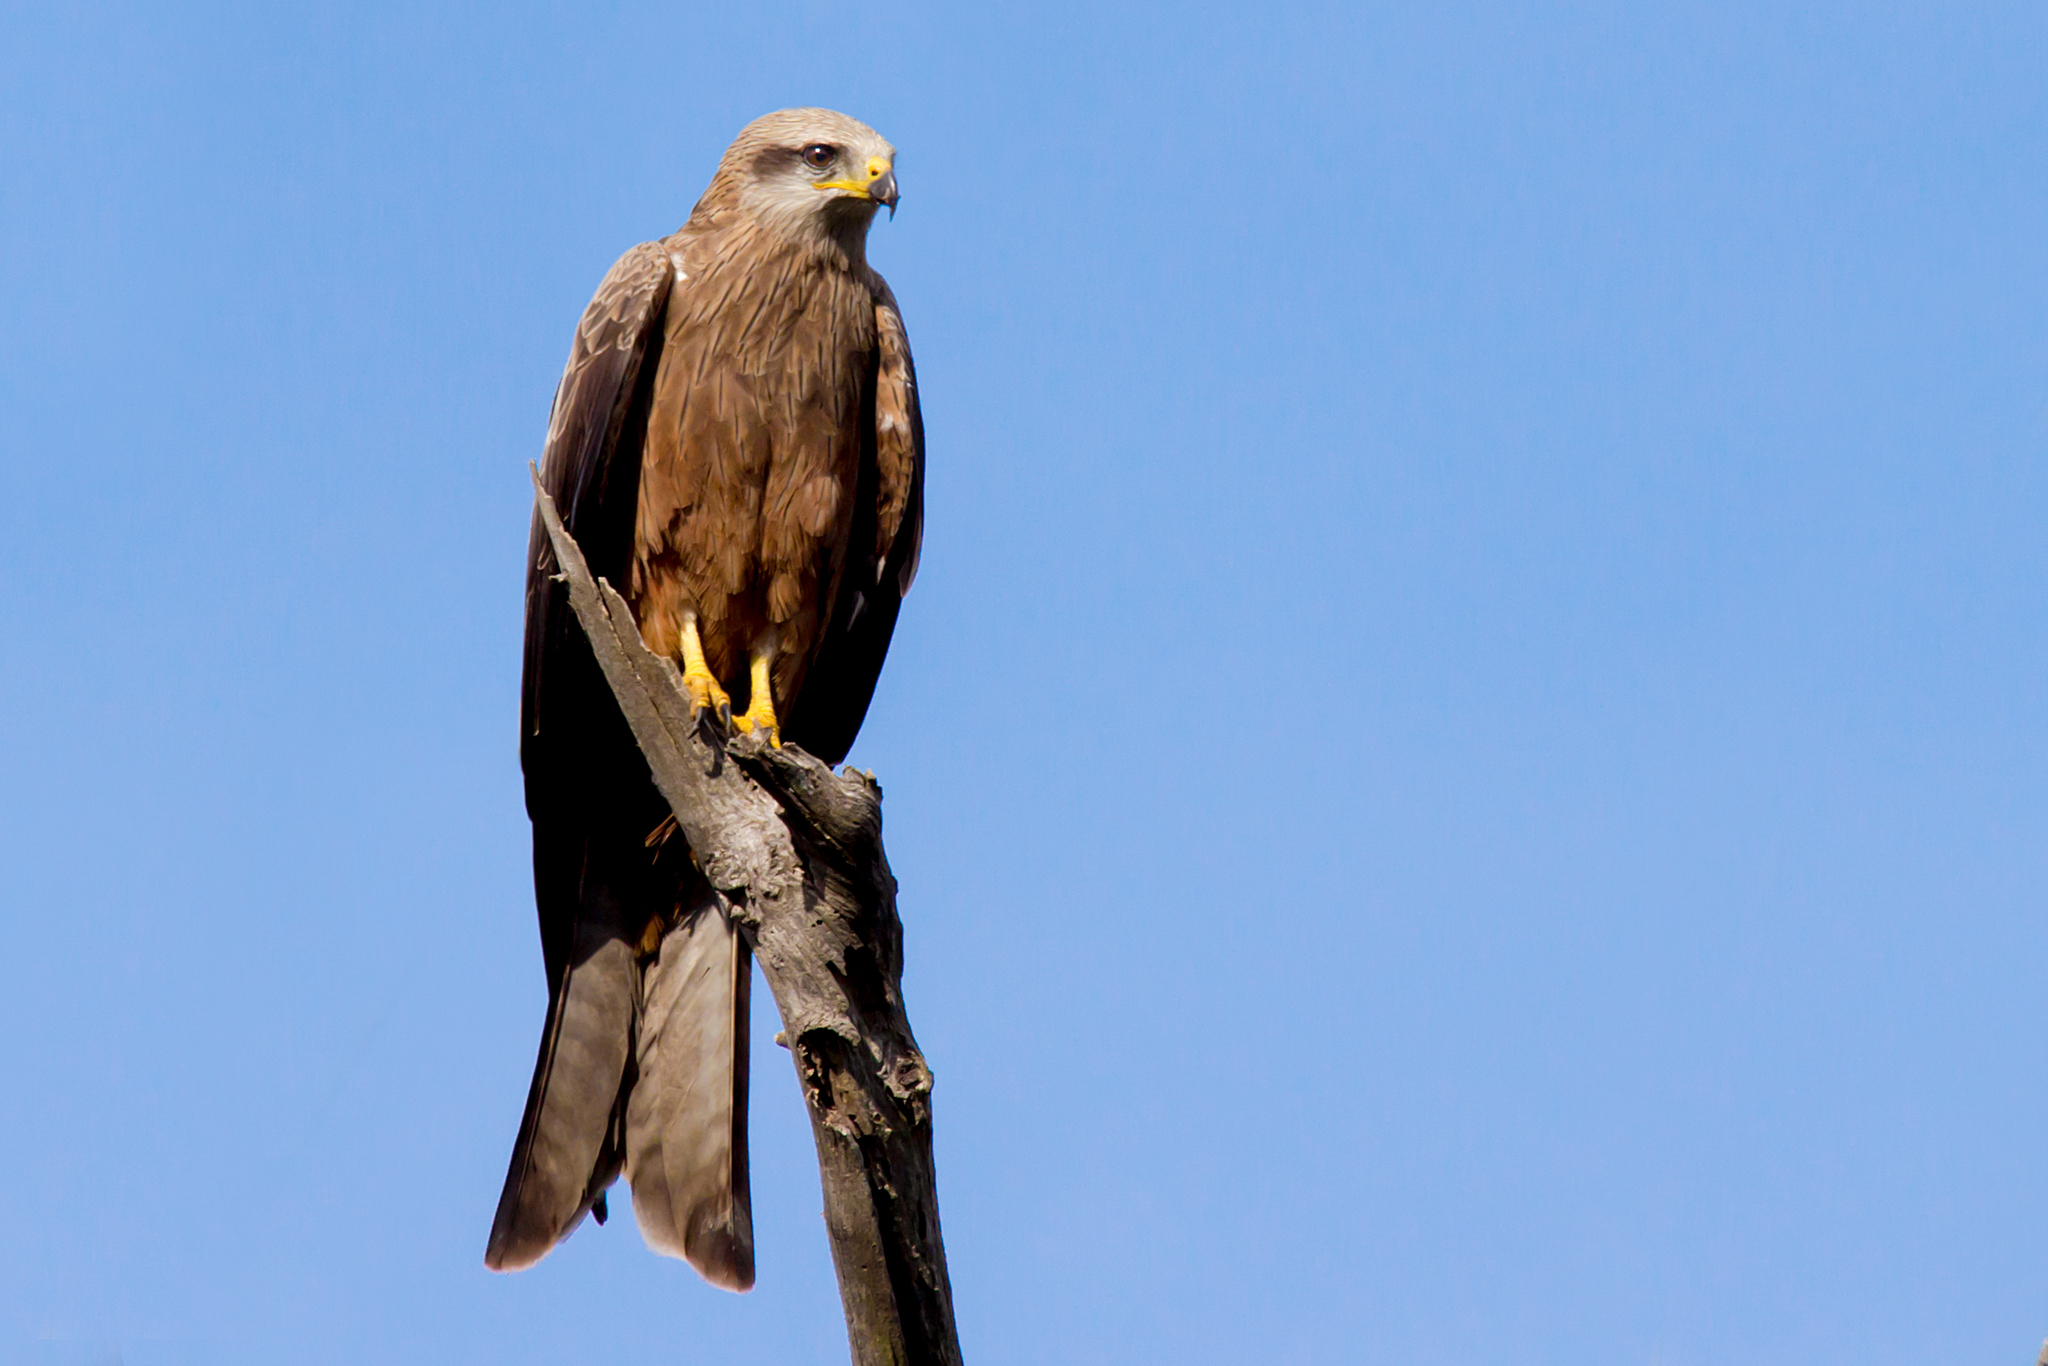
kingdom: Animalia
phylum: Chordata
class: Aves
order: Accipitriformes
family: Accipitridae
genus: Milvus
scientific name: Milvus migrans
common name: Black kite
